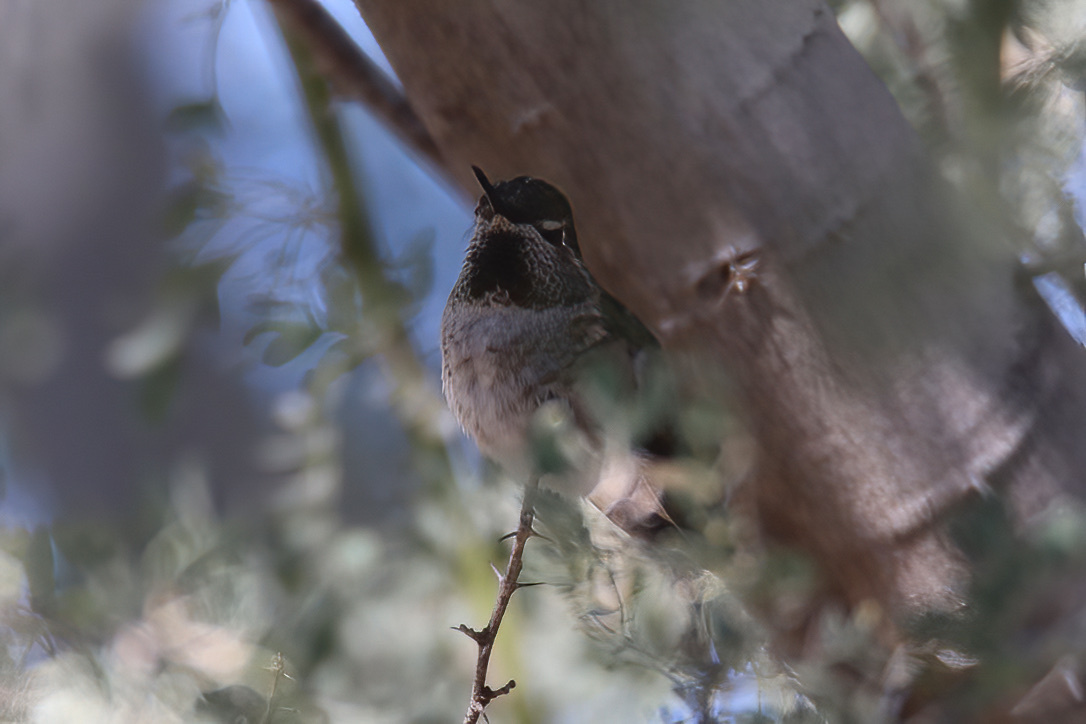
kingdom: Animalia
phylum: Chordata
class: Aves
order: Apodiformes
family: Trochilidae
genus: Calypte
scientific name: Calypte anna
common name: Anna's hummingbird
